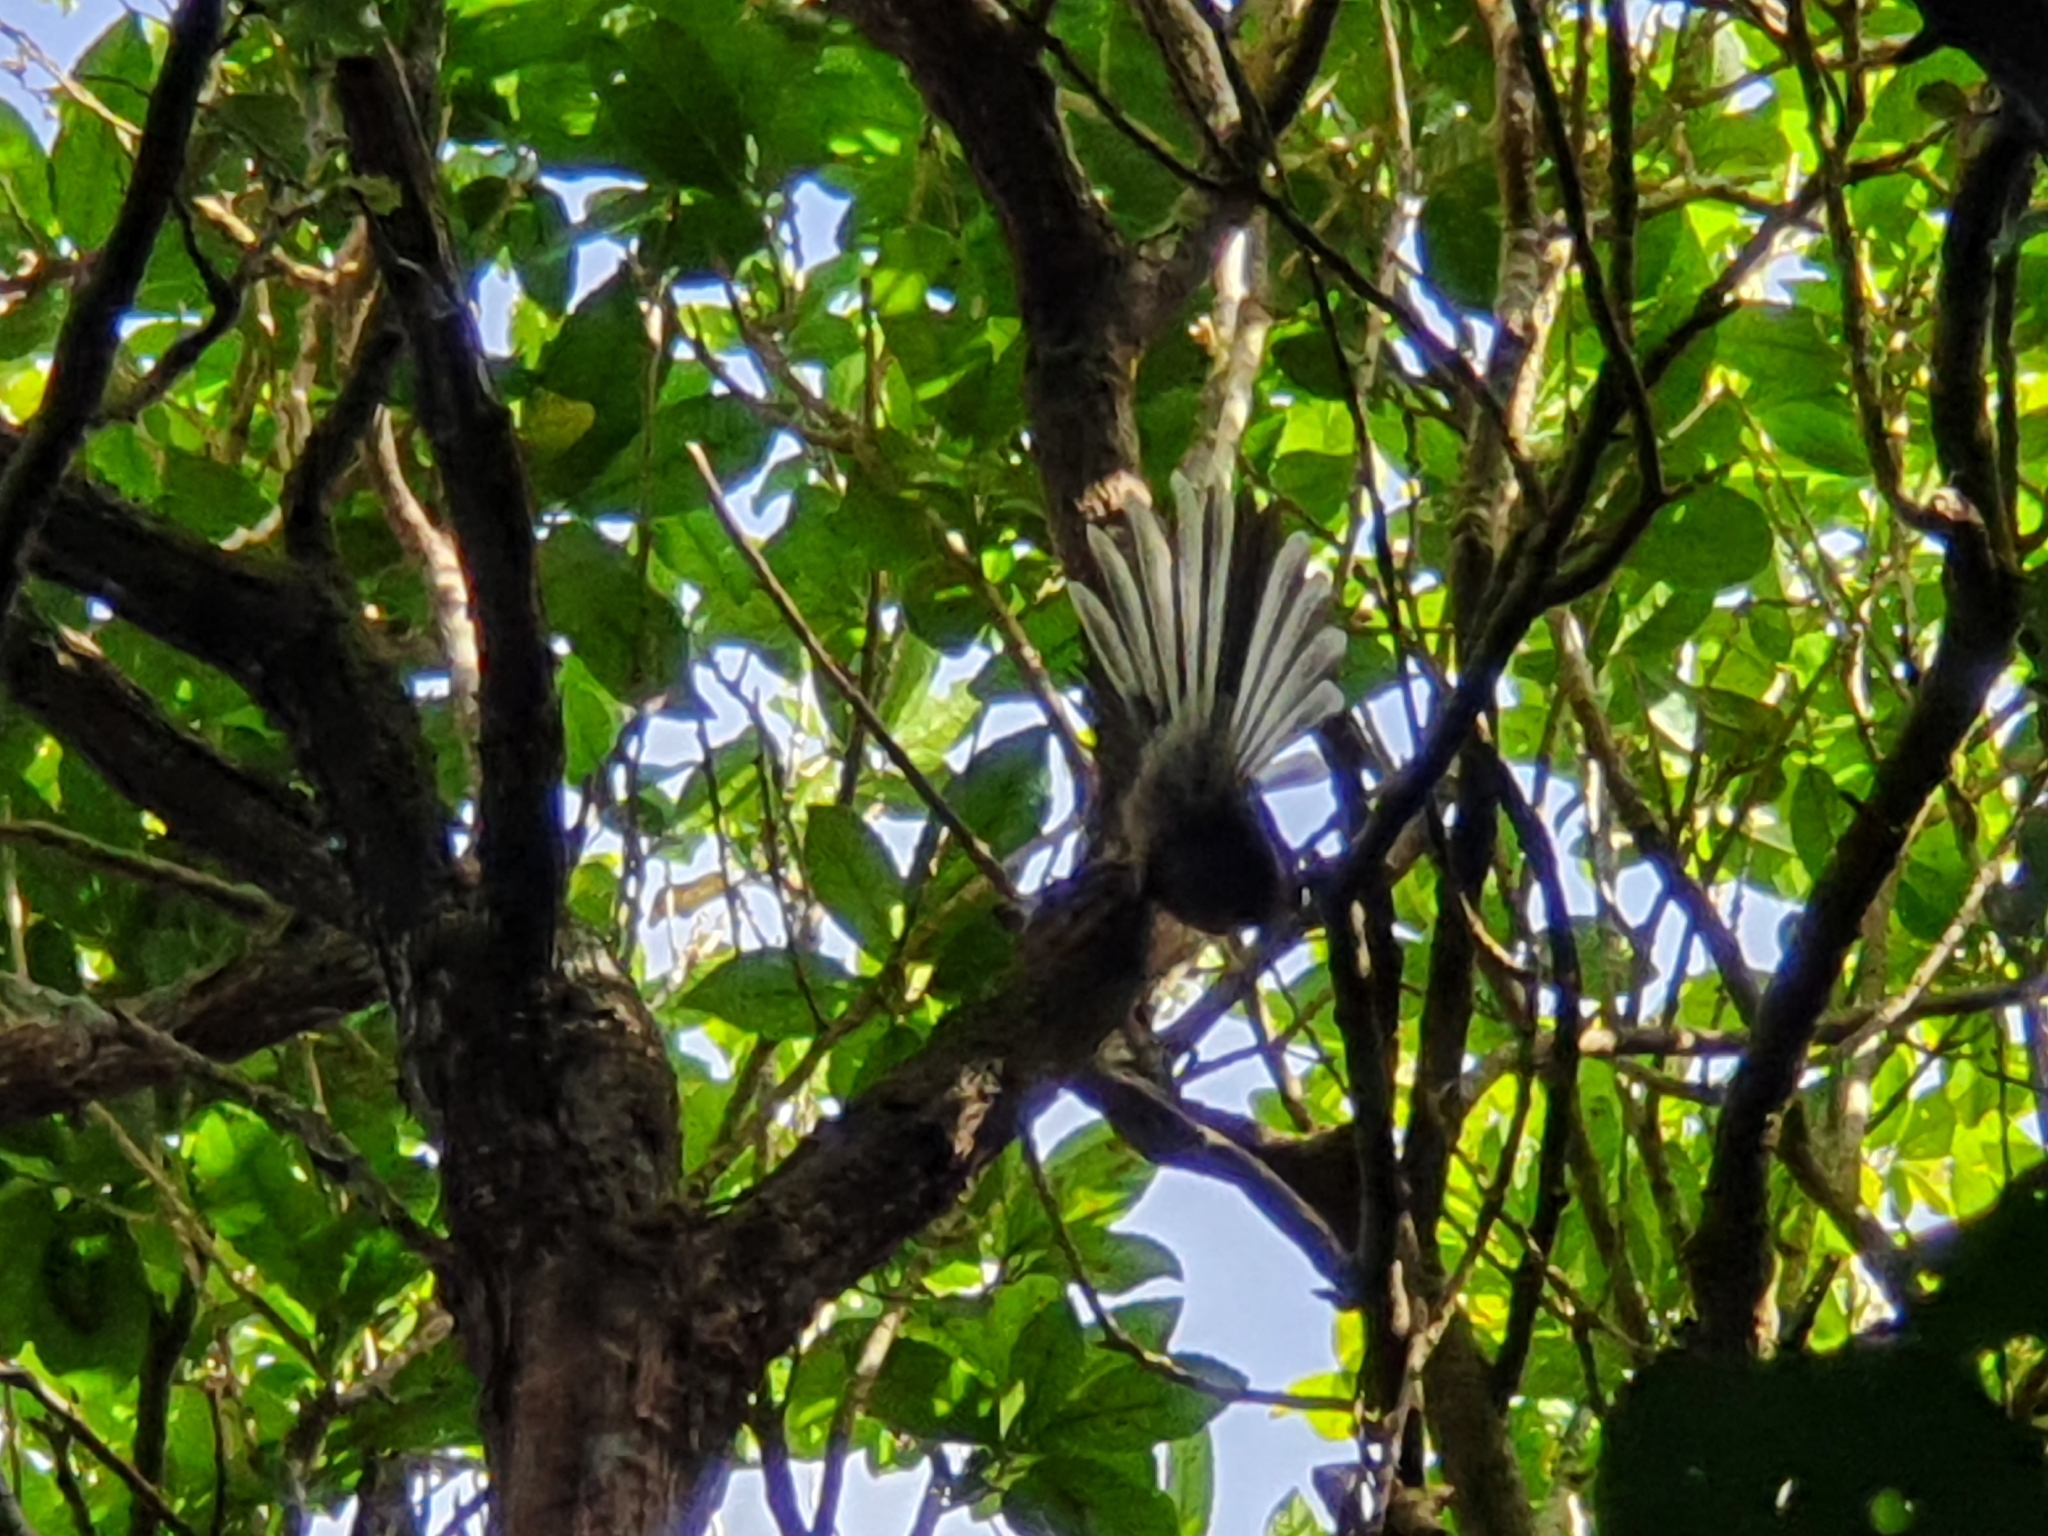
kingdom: Animalia
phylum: Chordata
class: Aves
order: Passeriformes
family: Rhipiduridae
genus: Rhipidura
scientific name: Rhipidura fuliginosa
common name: New zealand fantail
